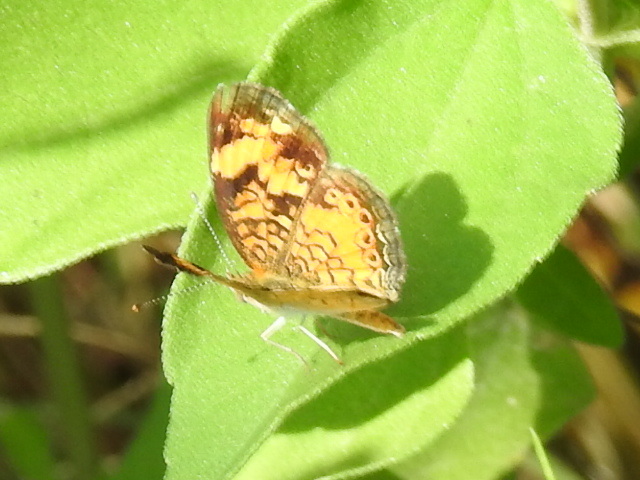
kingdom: Animalia
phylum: Arthropoda
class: Insecta
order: Lepidoptera
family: Nymphalidae
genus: Phyciodes
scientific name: Phyciodes tharos
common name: Pearl crescent
